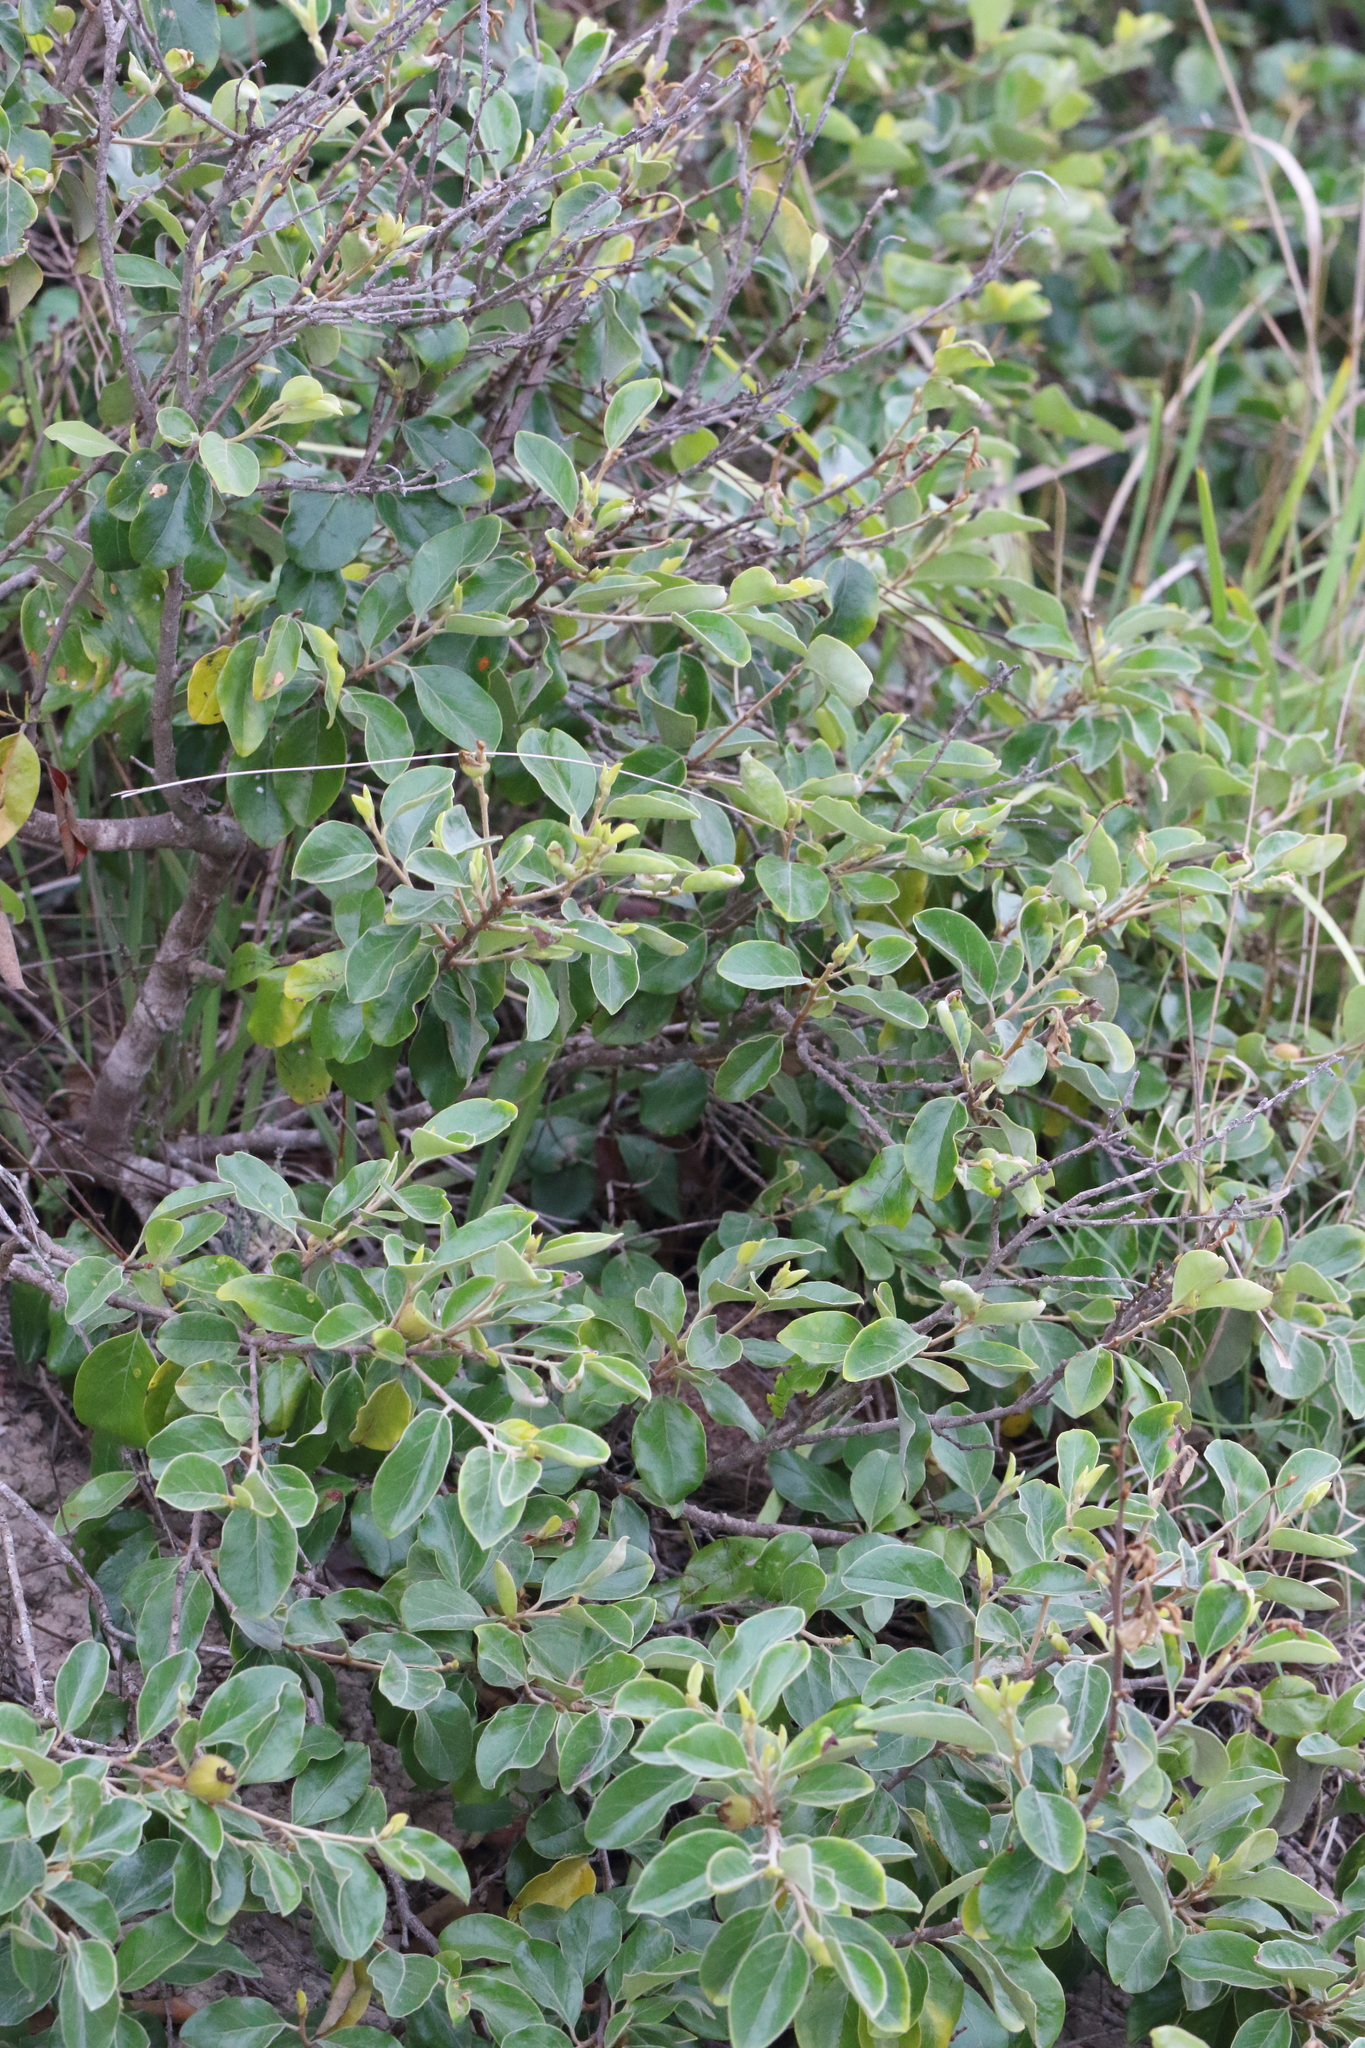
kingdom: Plantae
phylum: Tracheophyta
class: Magnoliopsida
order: Malpighiales
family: Picrodendraceae
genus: Petalostigma
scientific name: Petalostigma pubescens
